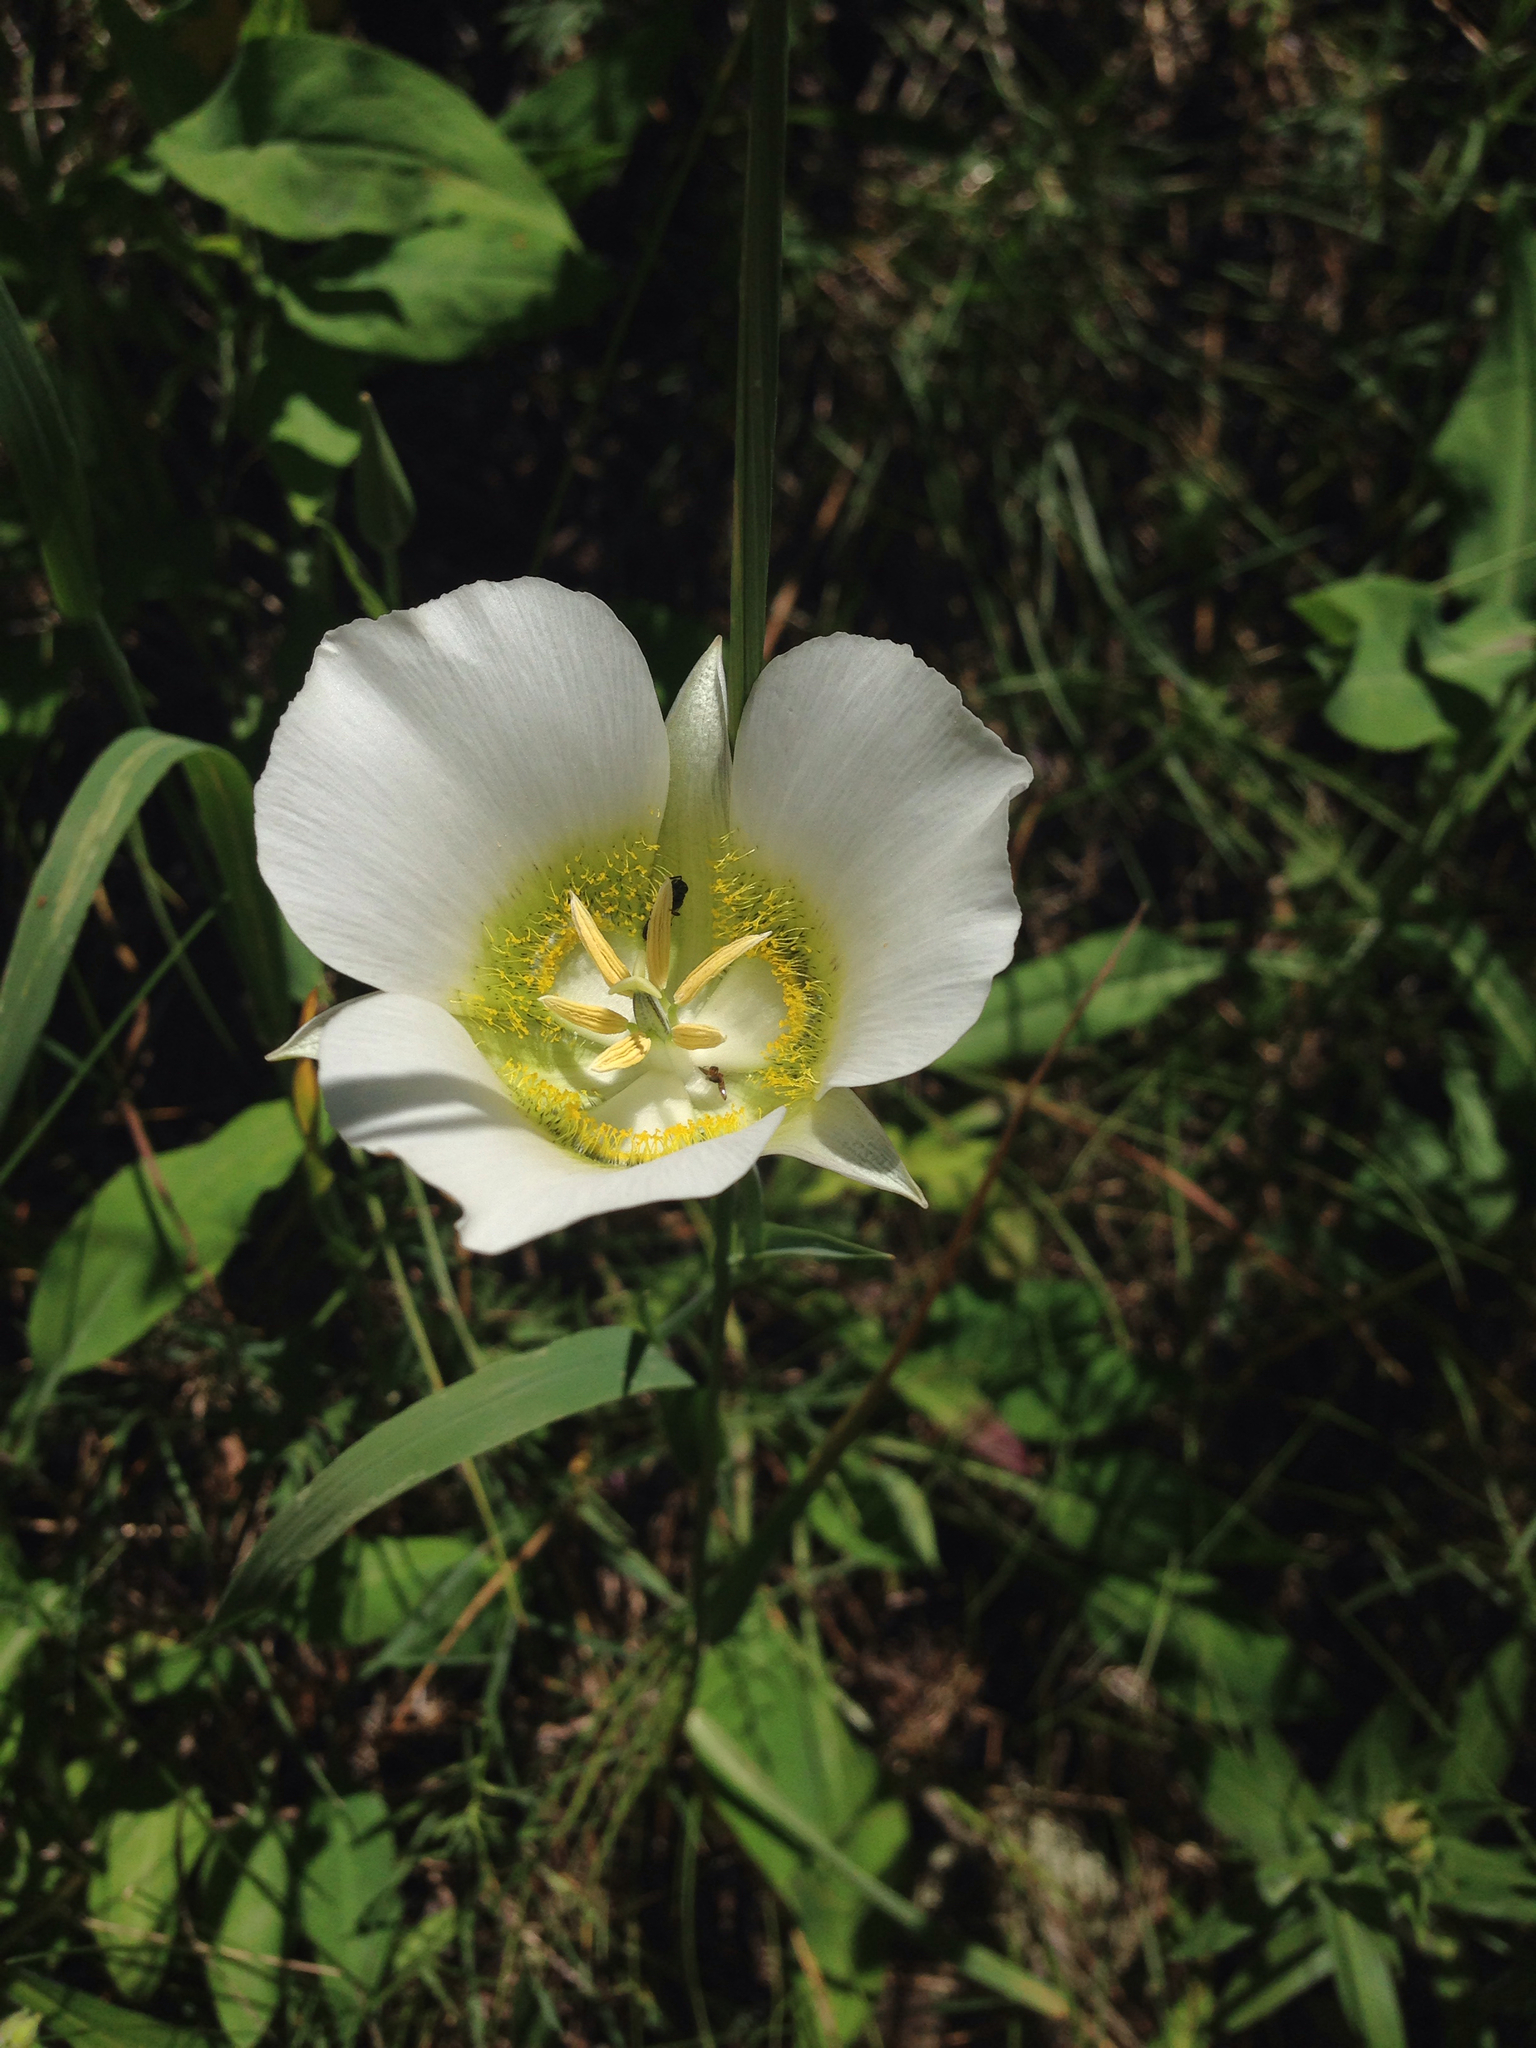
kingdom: Plantae
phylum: Tracheophyta
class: Liliopsida
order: Liliales
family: Liliaceae
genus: Calochortus
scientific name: Calochortus gunnisonii
